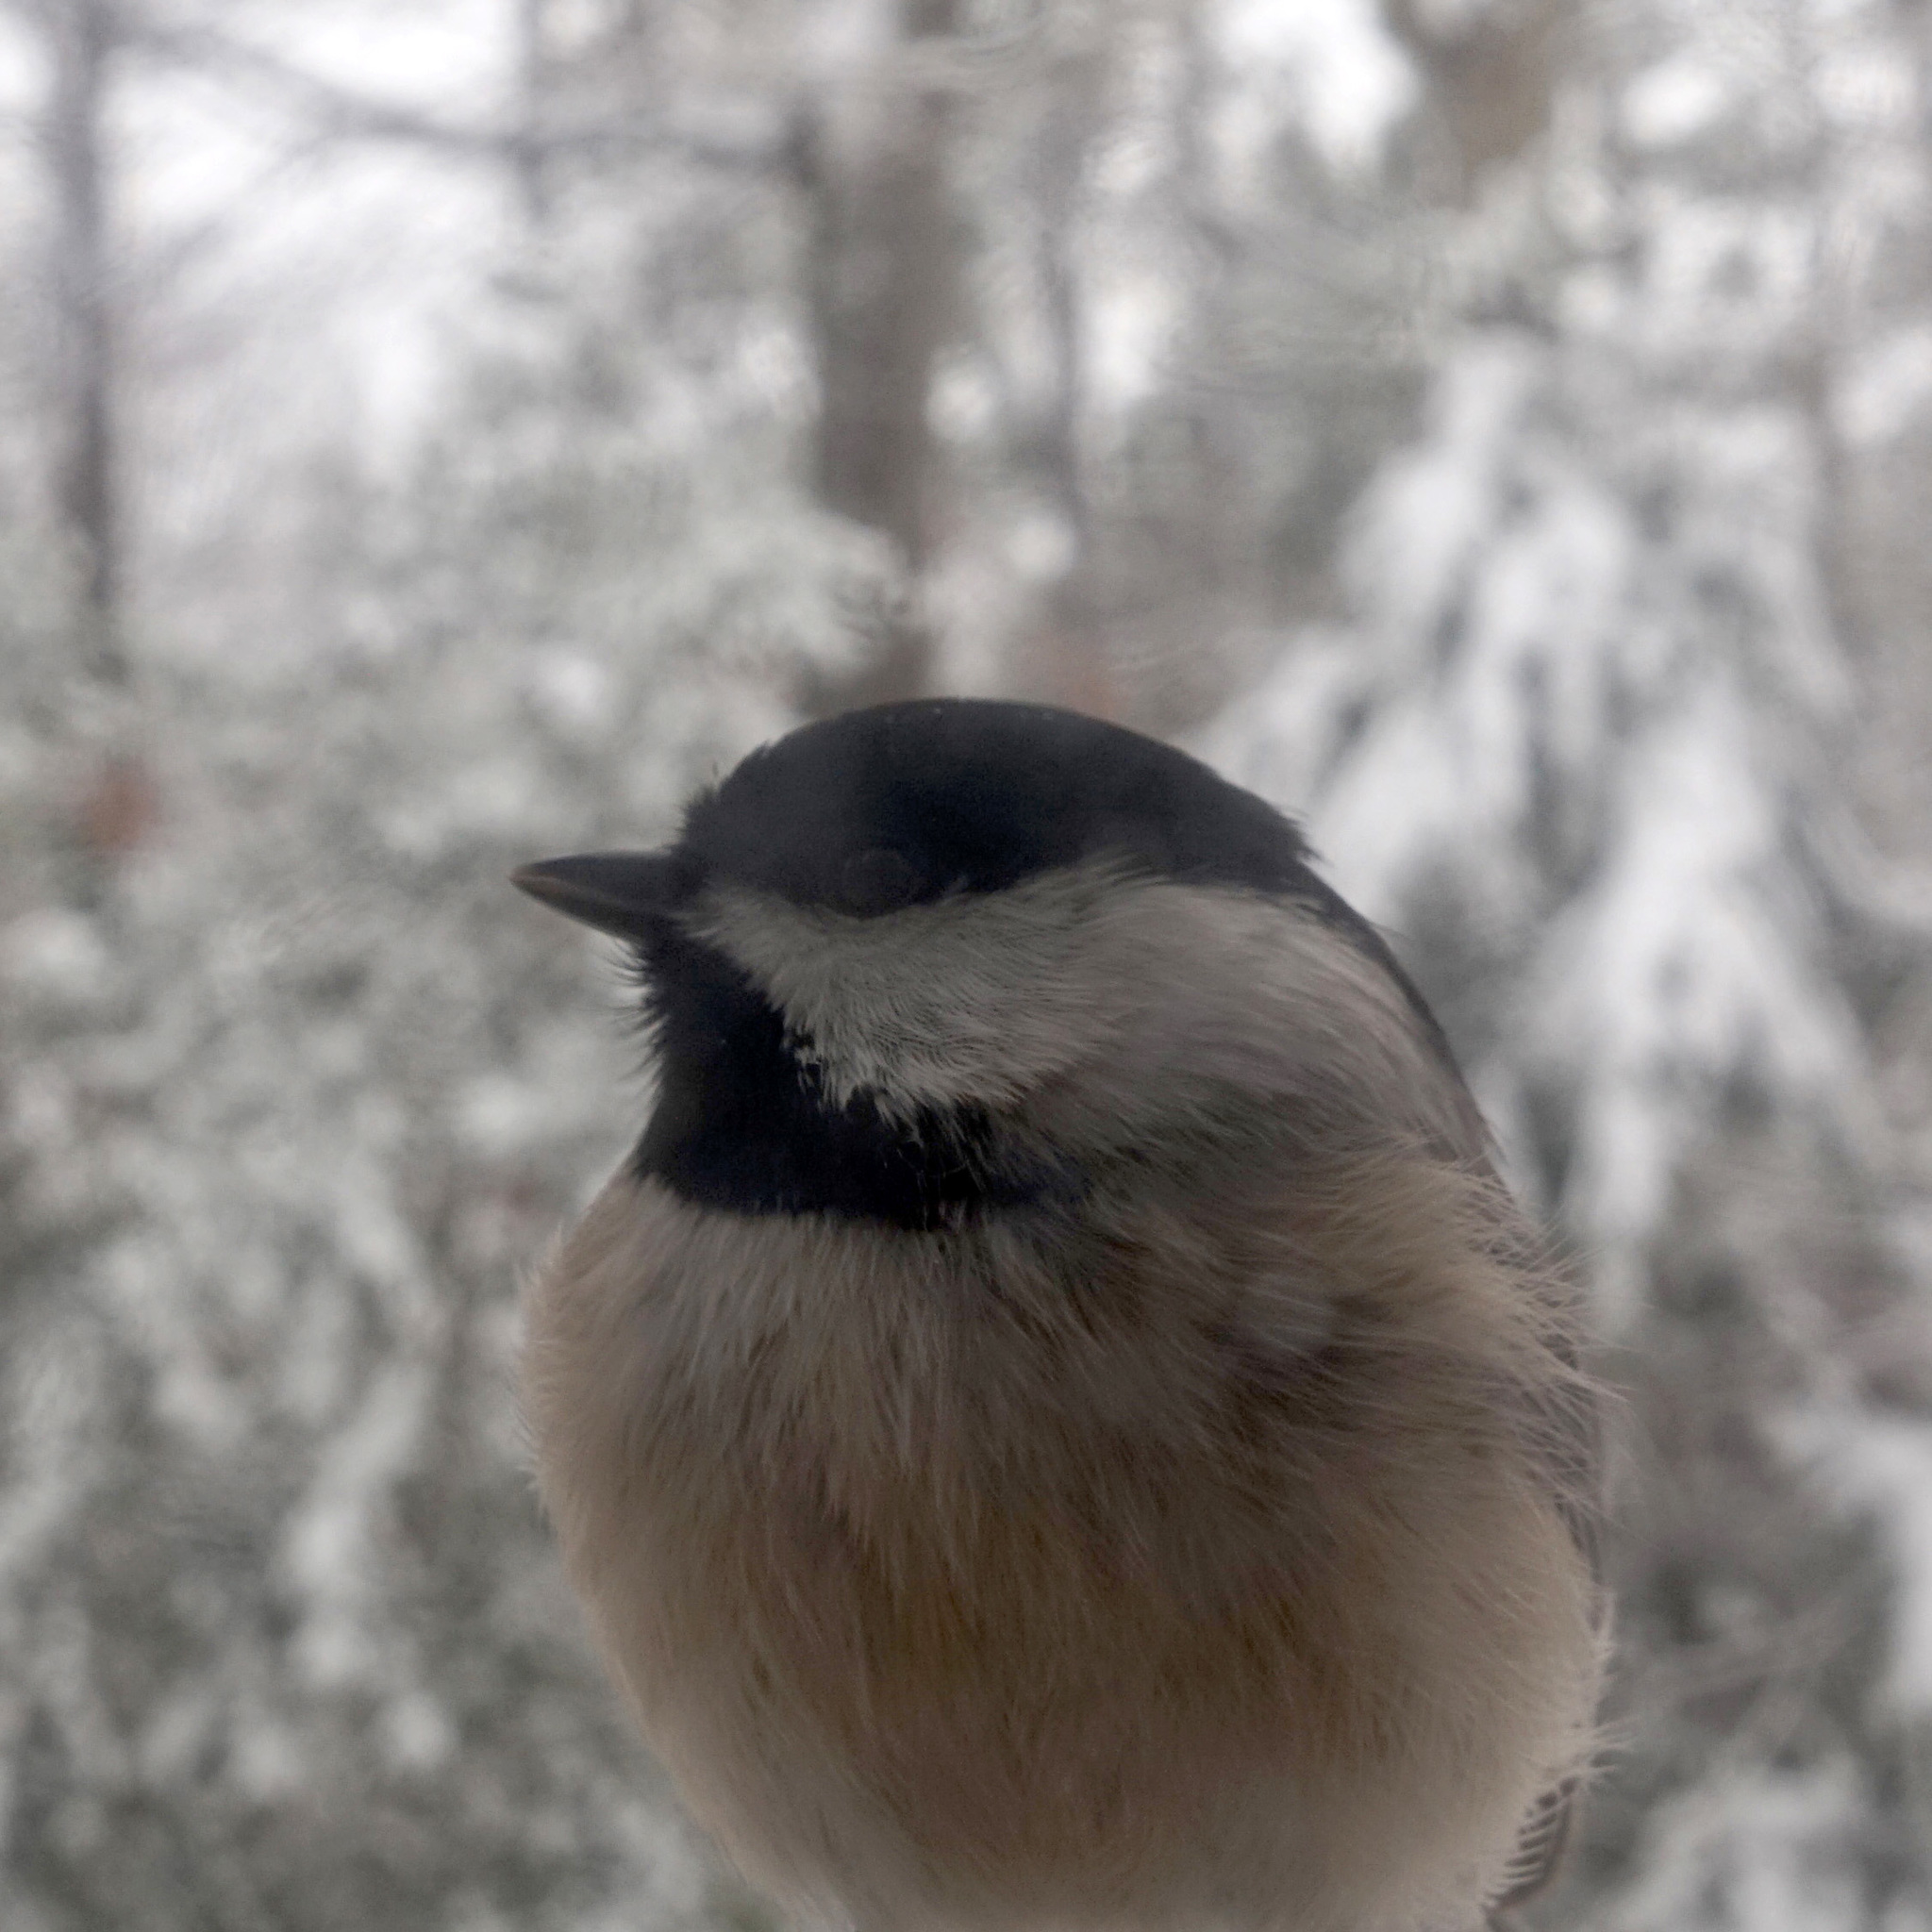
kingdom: Animalia
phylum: Chordata
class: Aves
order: Passeriformes
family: Paridae
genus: Poecile
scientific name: Poecile carolinensis
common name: Carolina chickadee
